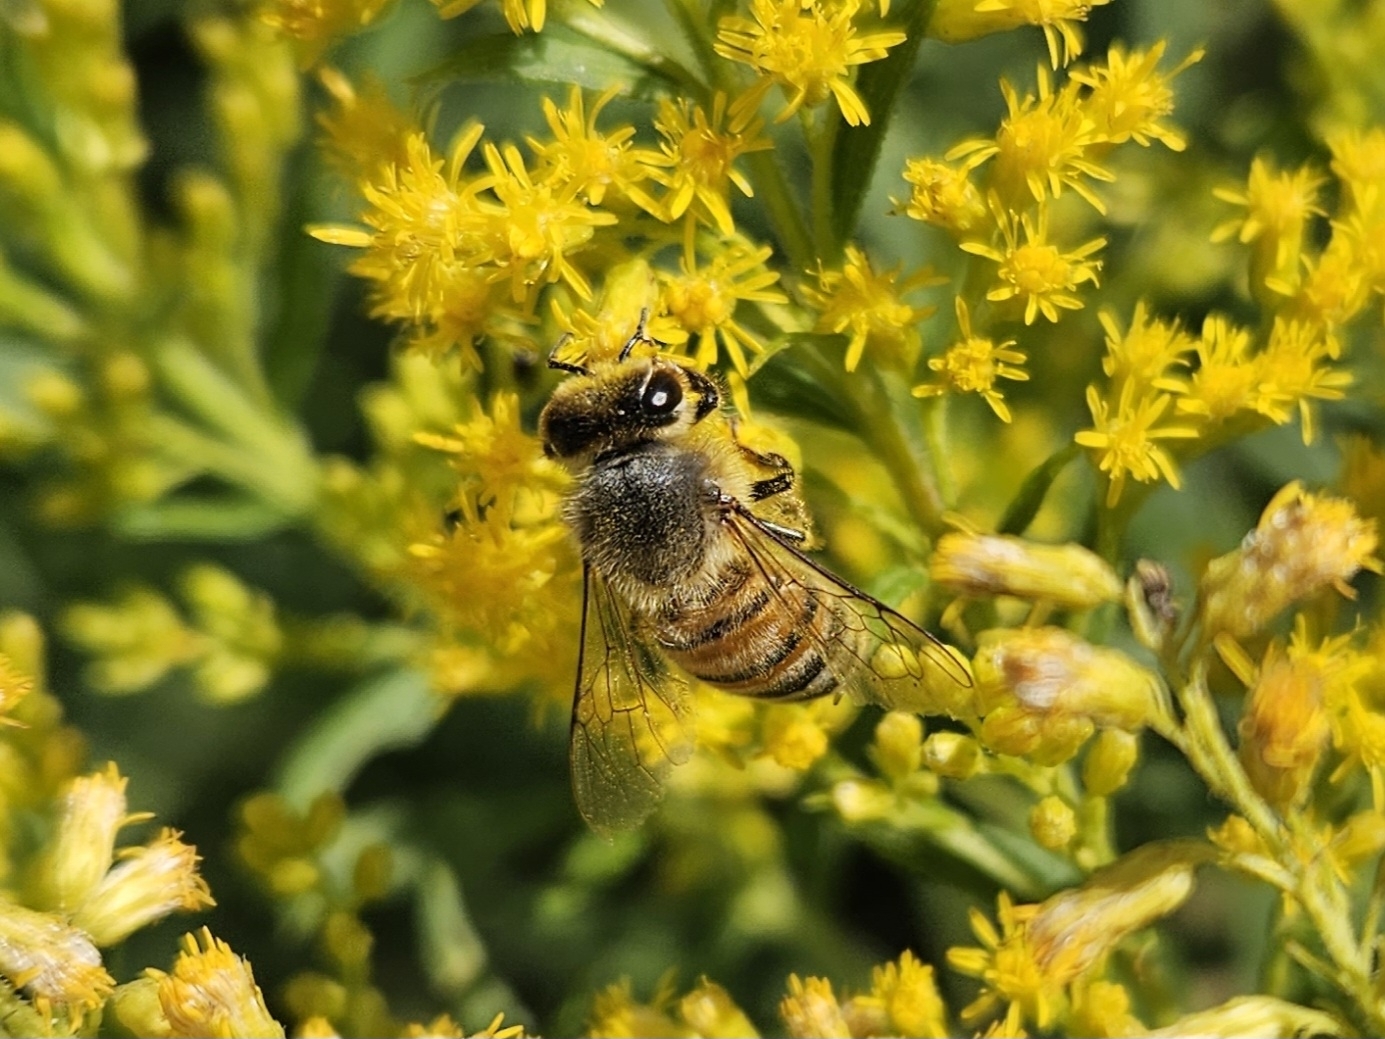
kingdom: Animalia
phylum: Arthropoda
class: Insecta
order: Hymenoptera
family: Apidae
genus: Apis
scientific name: Apis mellifera
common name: Honey bee
